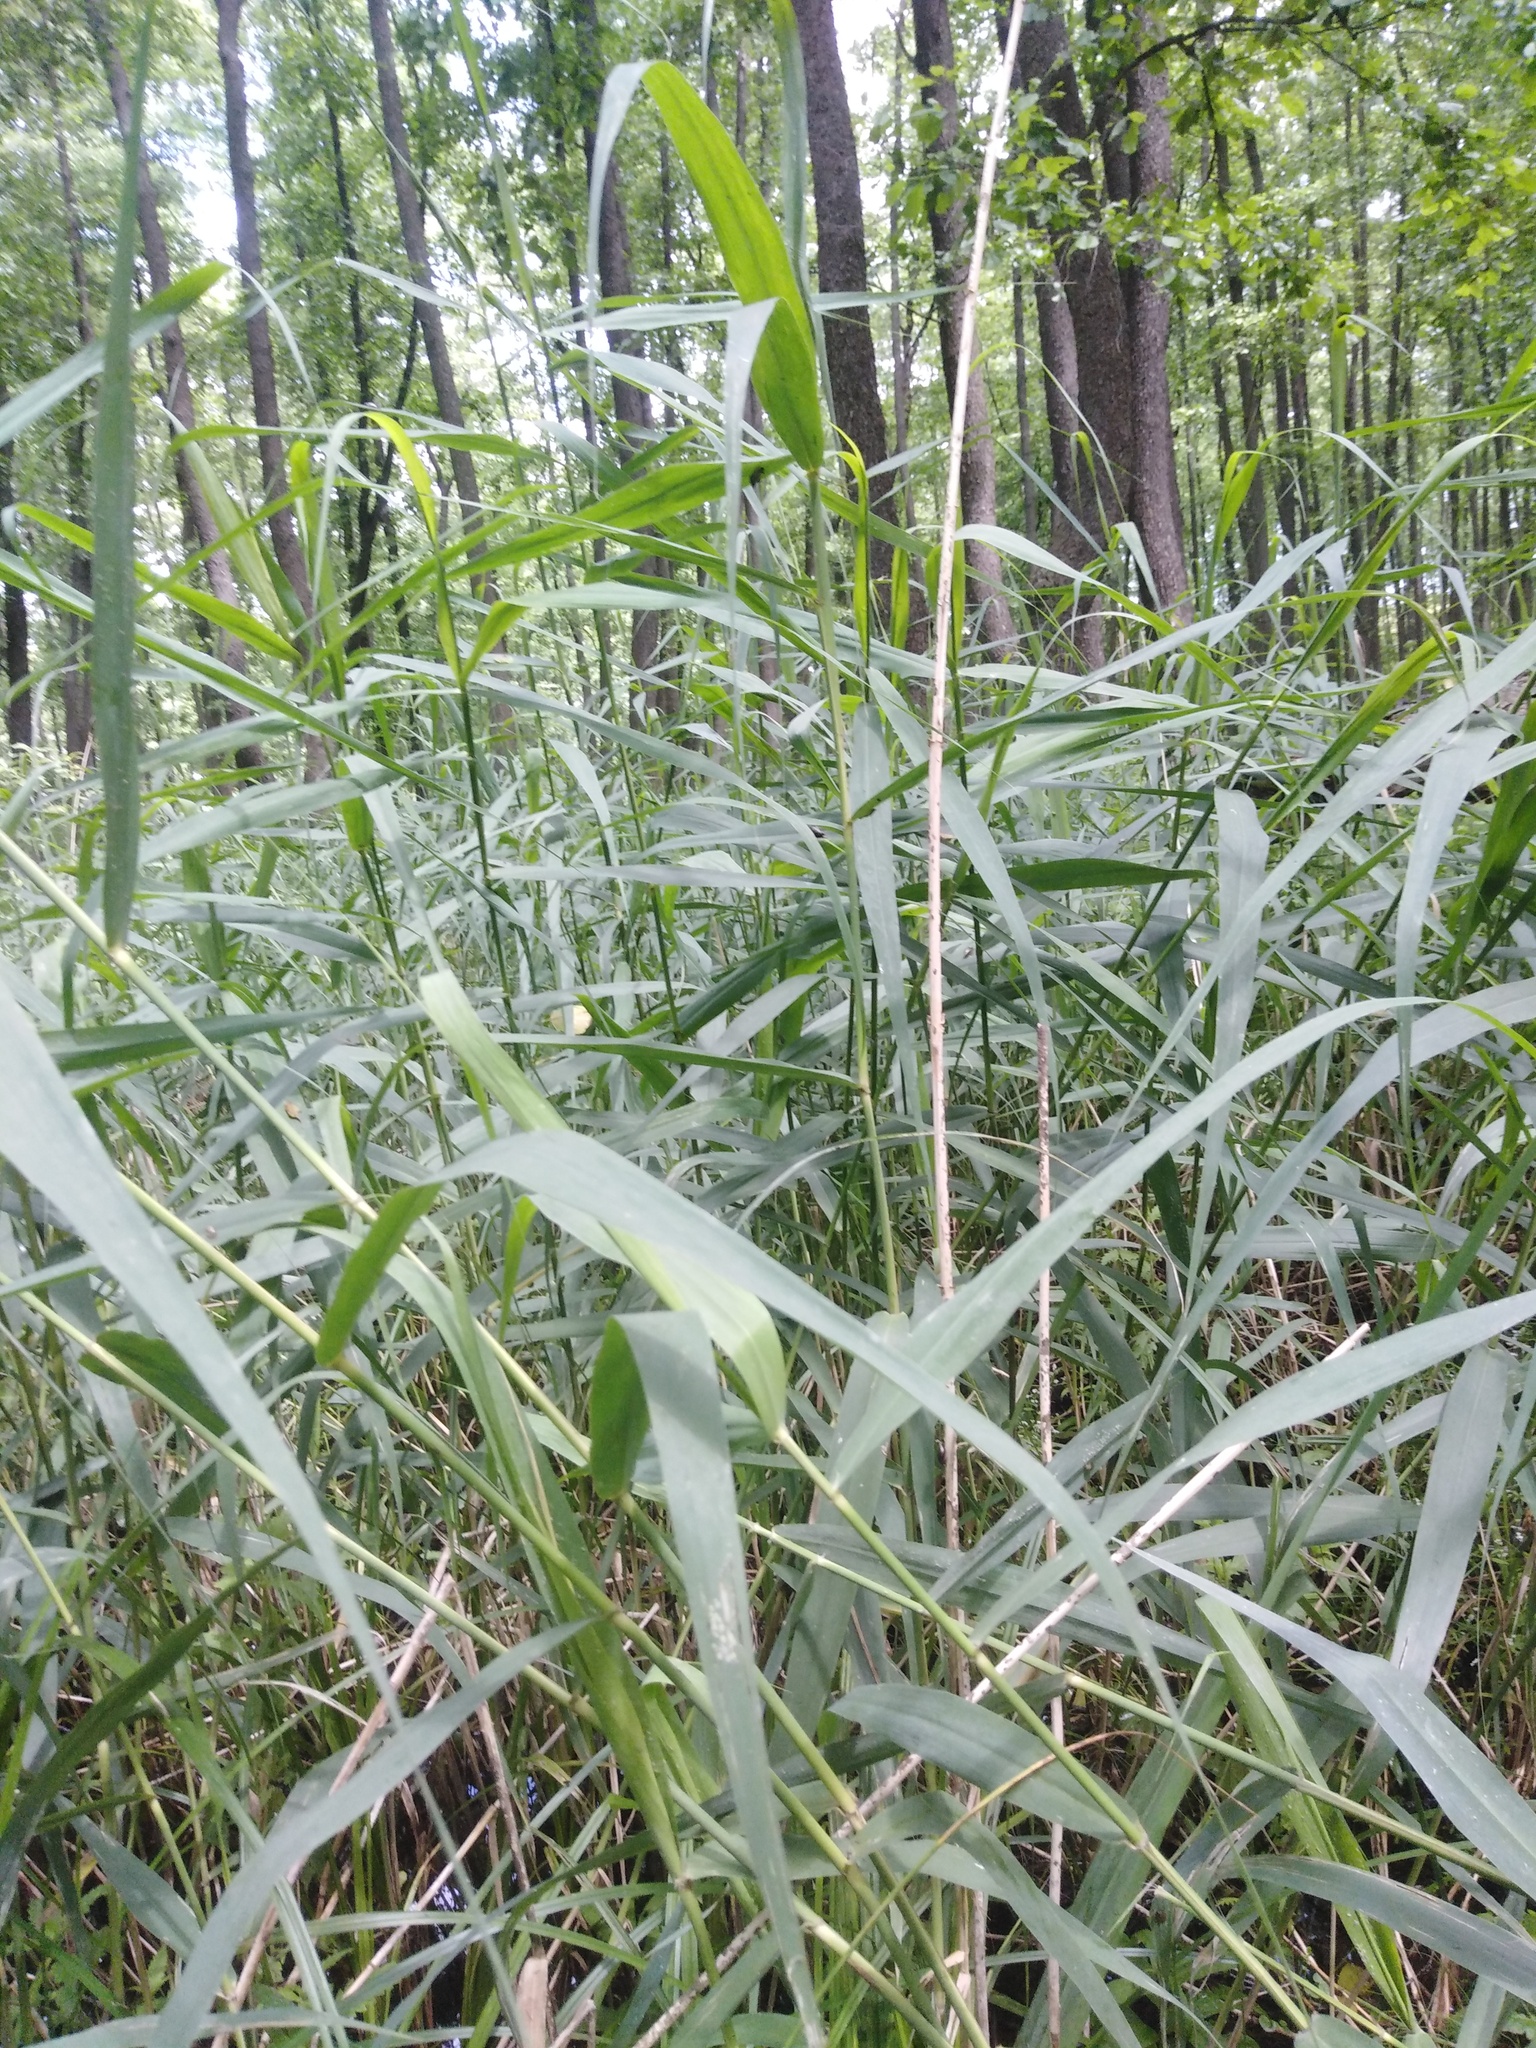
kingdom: Plantae
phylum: Tracheophyta
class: Liliopsida
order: Poales
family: Poaceae
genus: Phragmites
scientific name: Phragmites australis
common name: Common reed
